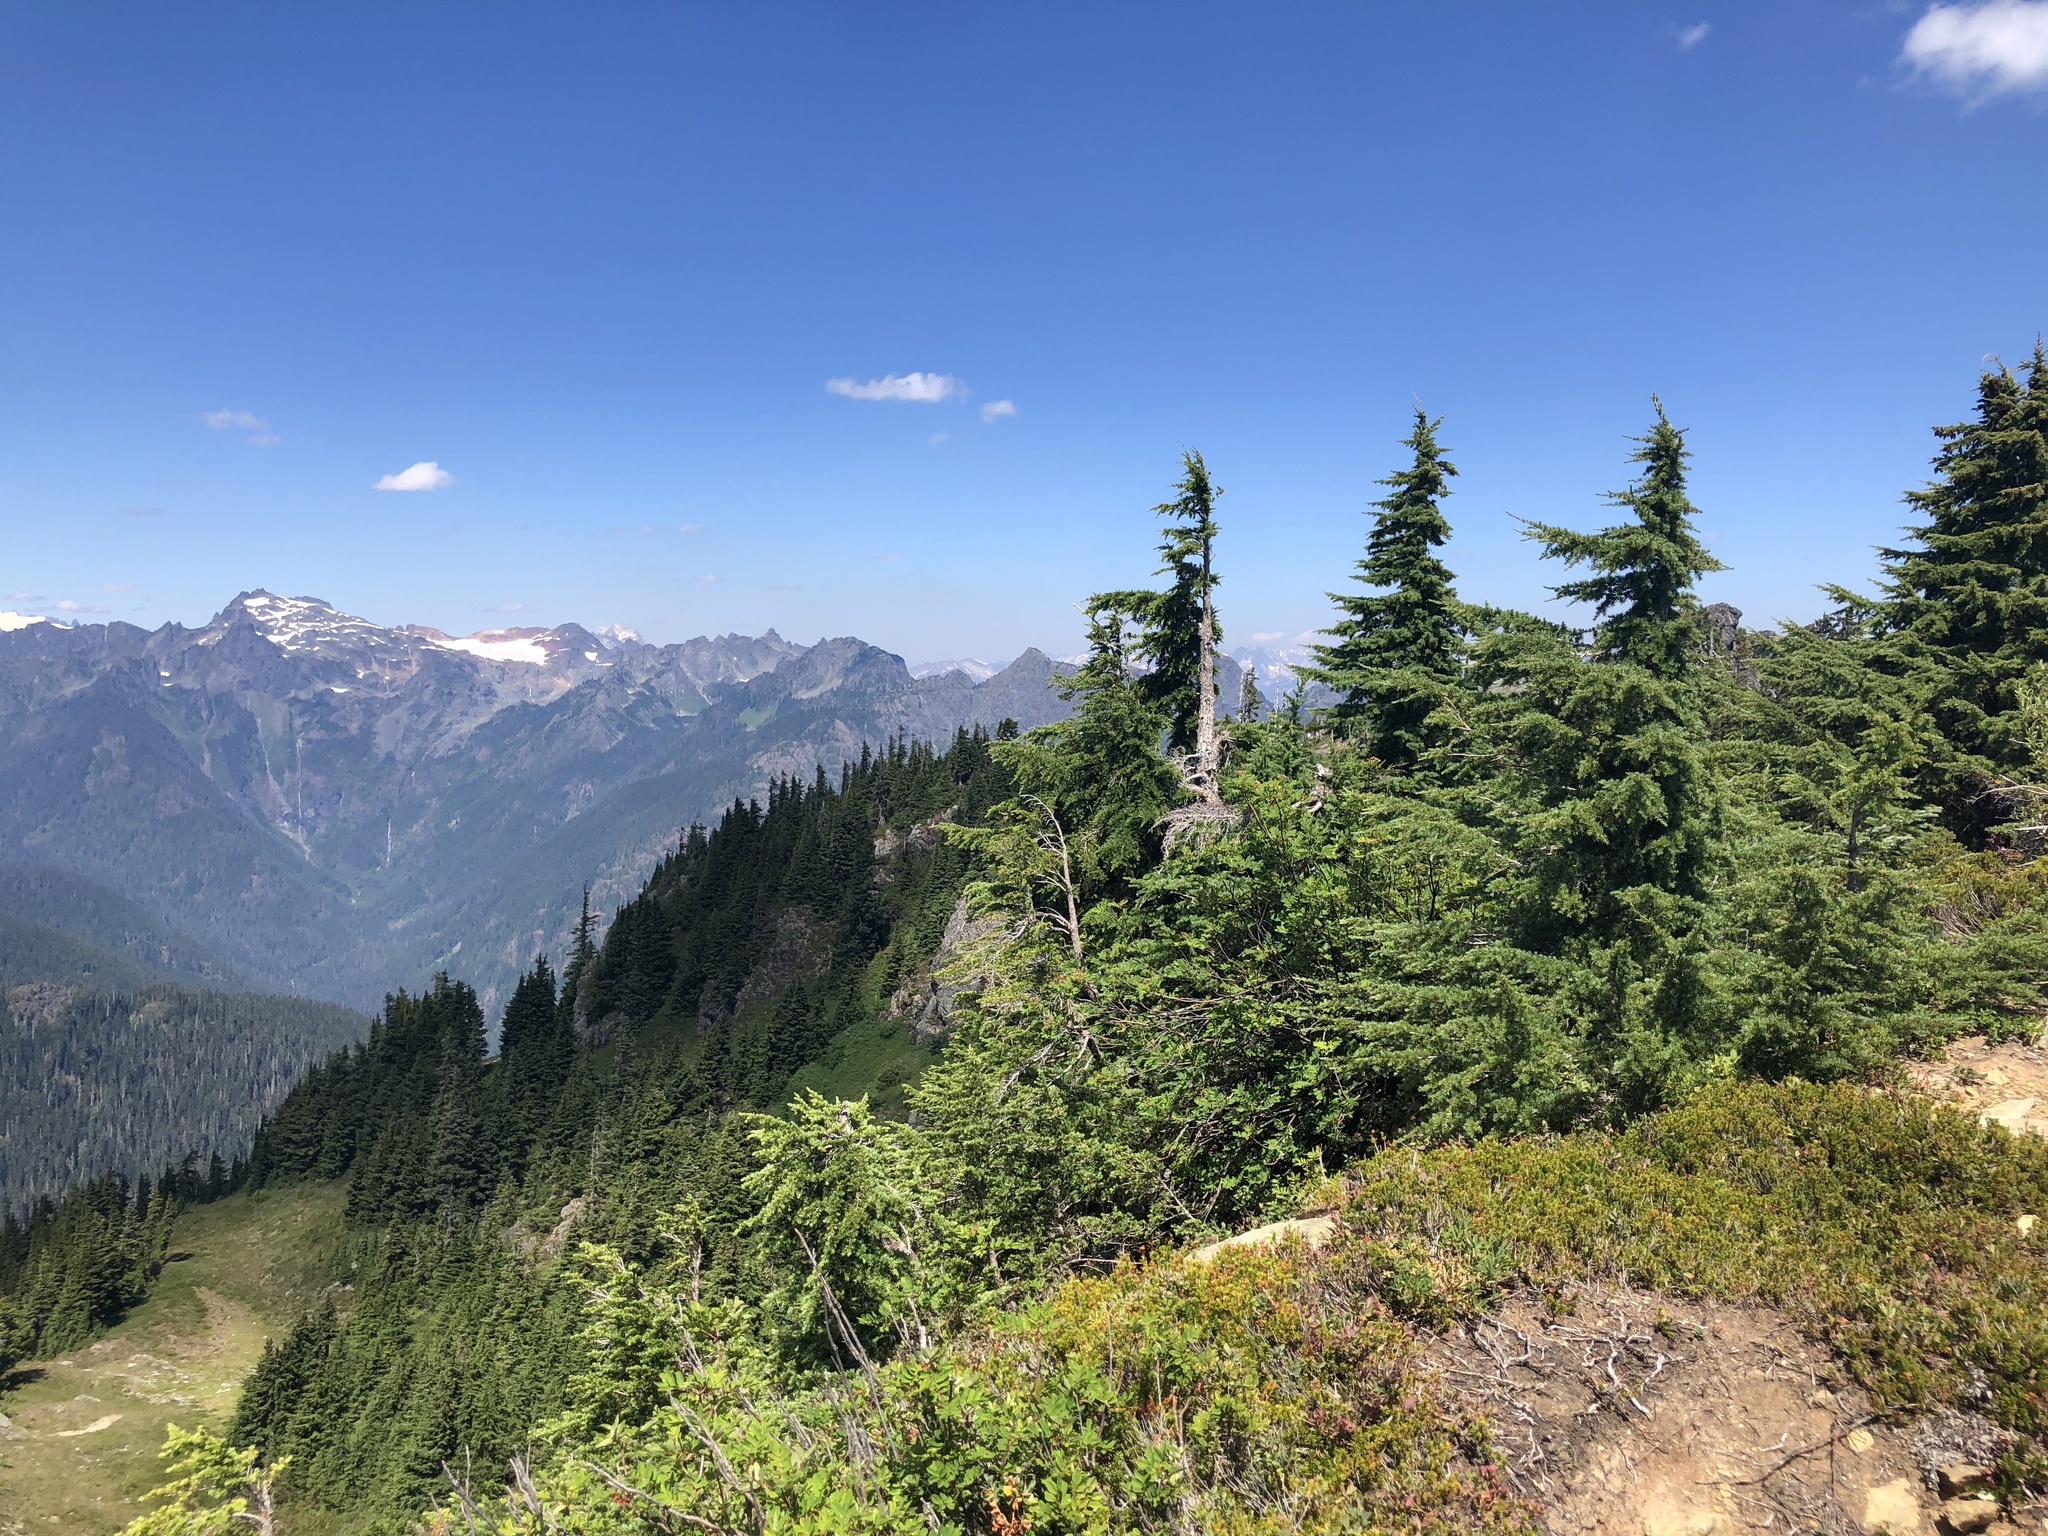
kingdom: Plantae
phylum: Tracheophyta
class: Pinopsida
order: Pinales
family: Pinaceae
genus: Tsuga
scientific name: Tsuga mertensiana
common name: Mountain hemlock
